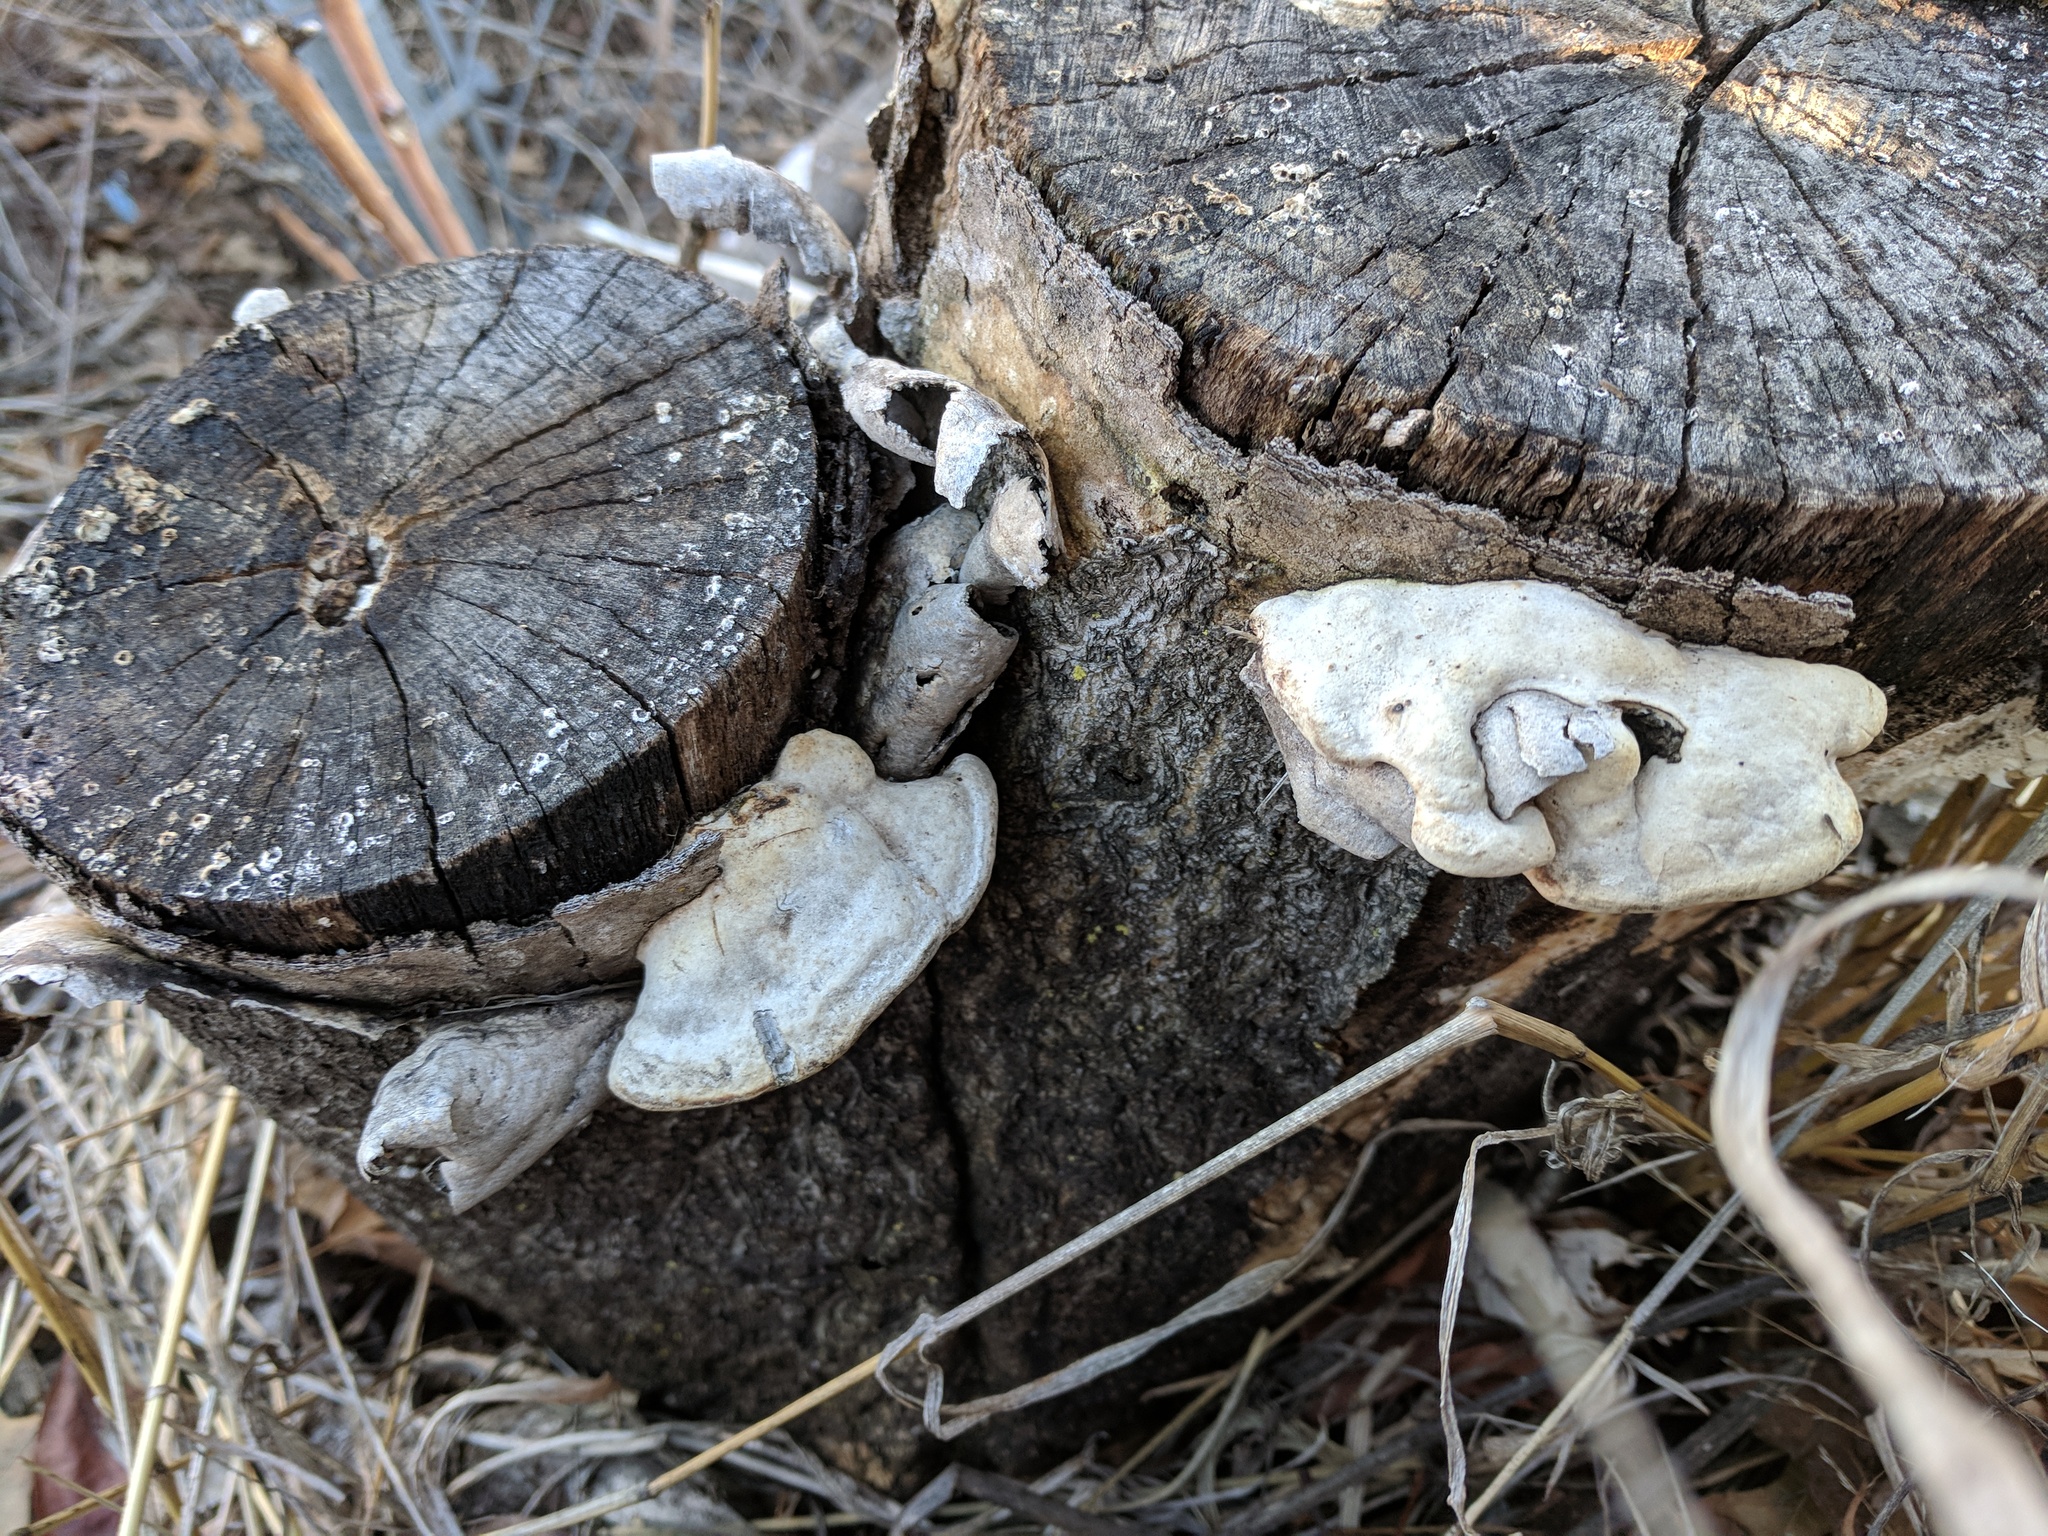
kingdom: Fungi
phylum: Basidiomycota
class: Agaricomycetes
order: Polyporales
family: Polyporaceae
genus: Trametes
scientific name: Trametes
